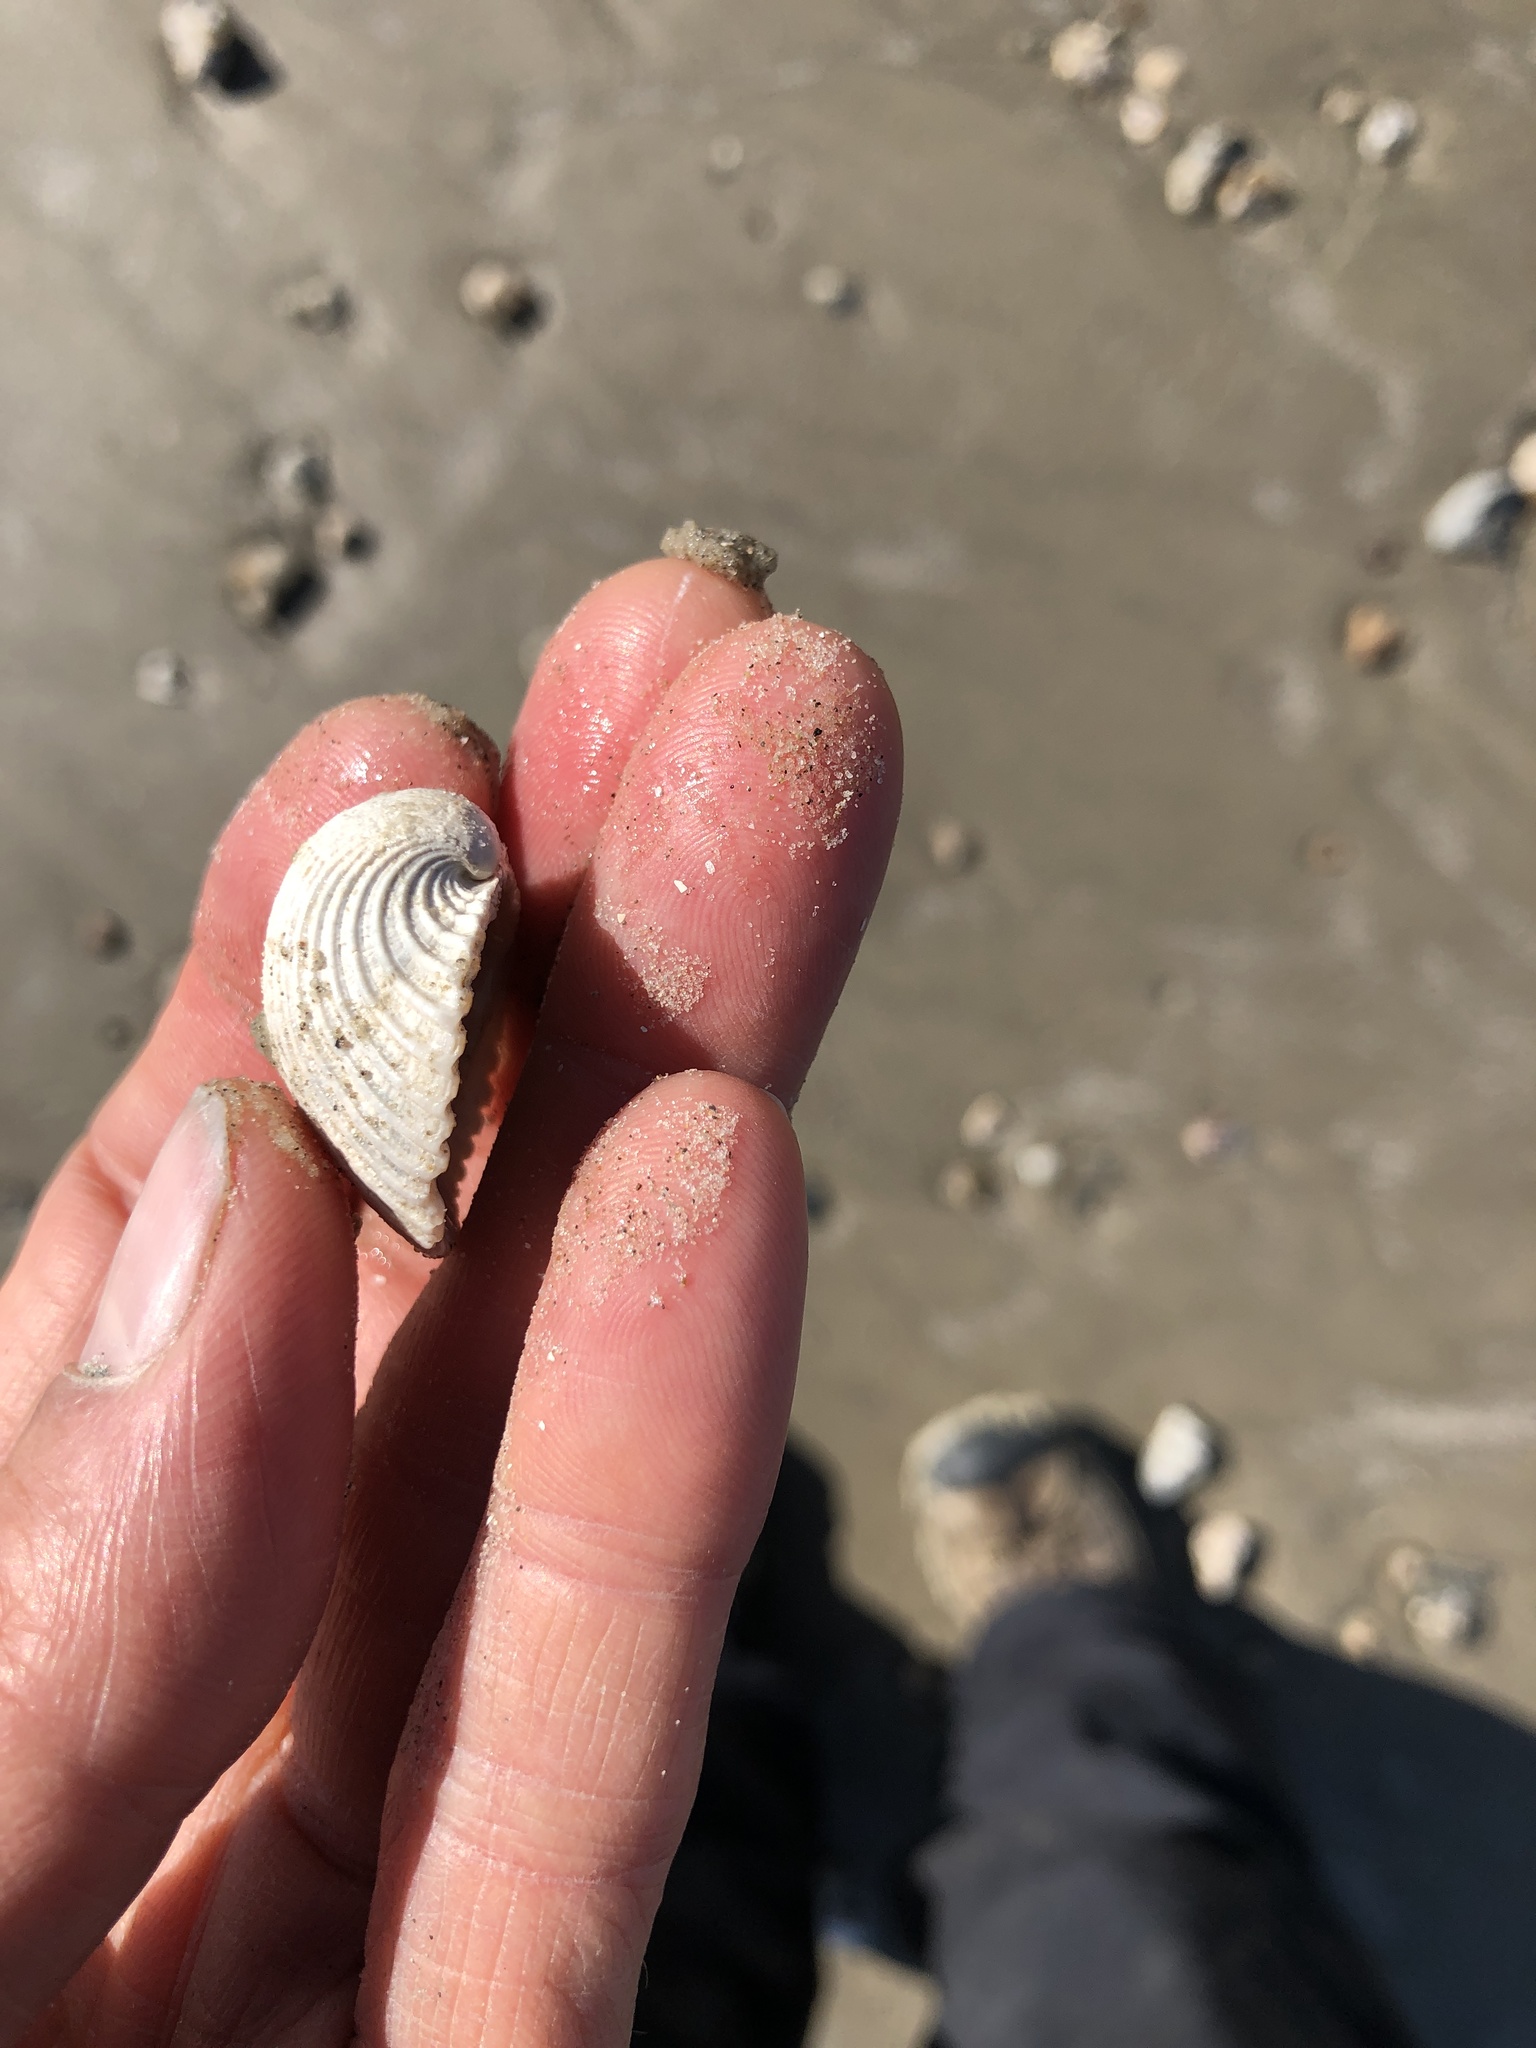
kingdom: Animalia
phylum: Mollusca
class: Bivalvia
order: Arcida
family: Arcidae
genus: Lunarca
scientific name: Lunarca ovalis
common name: Blood ark
